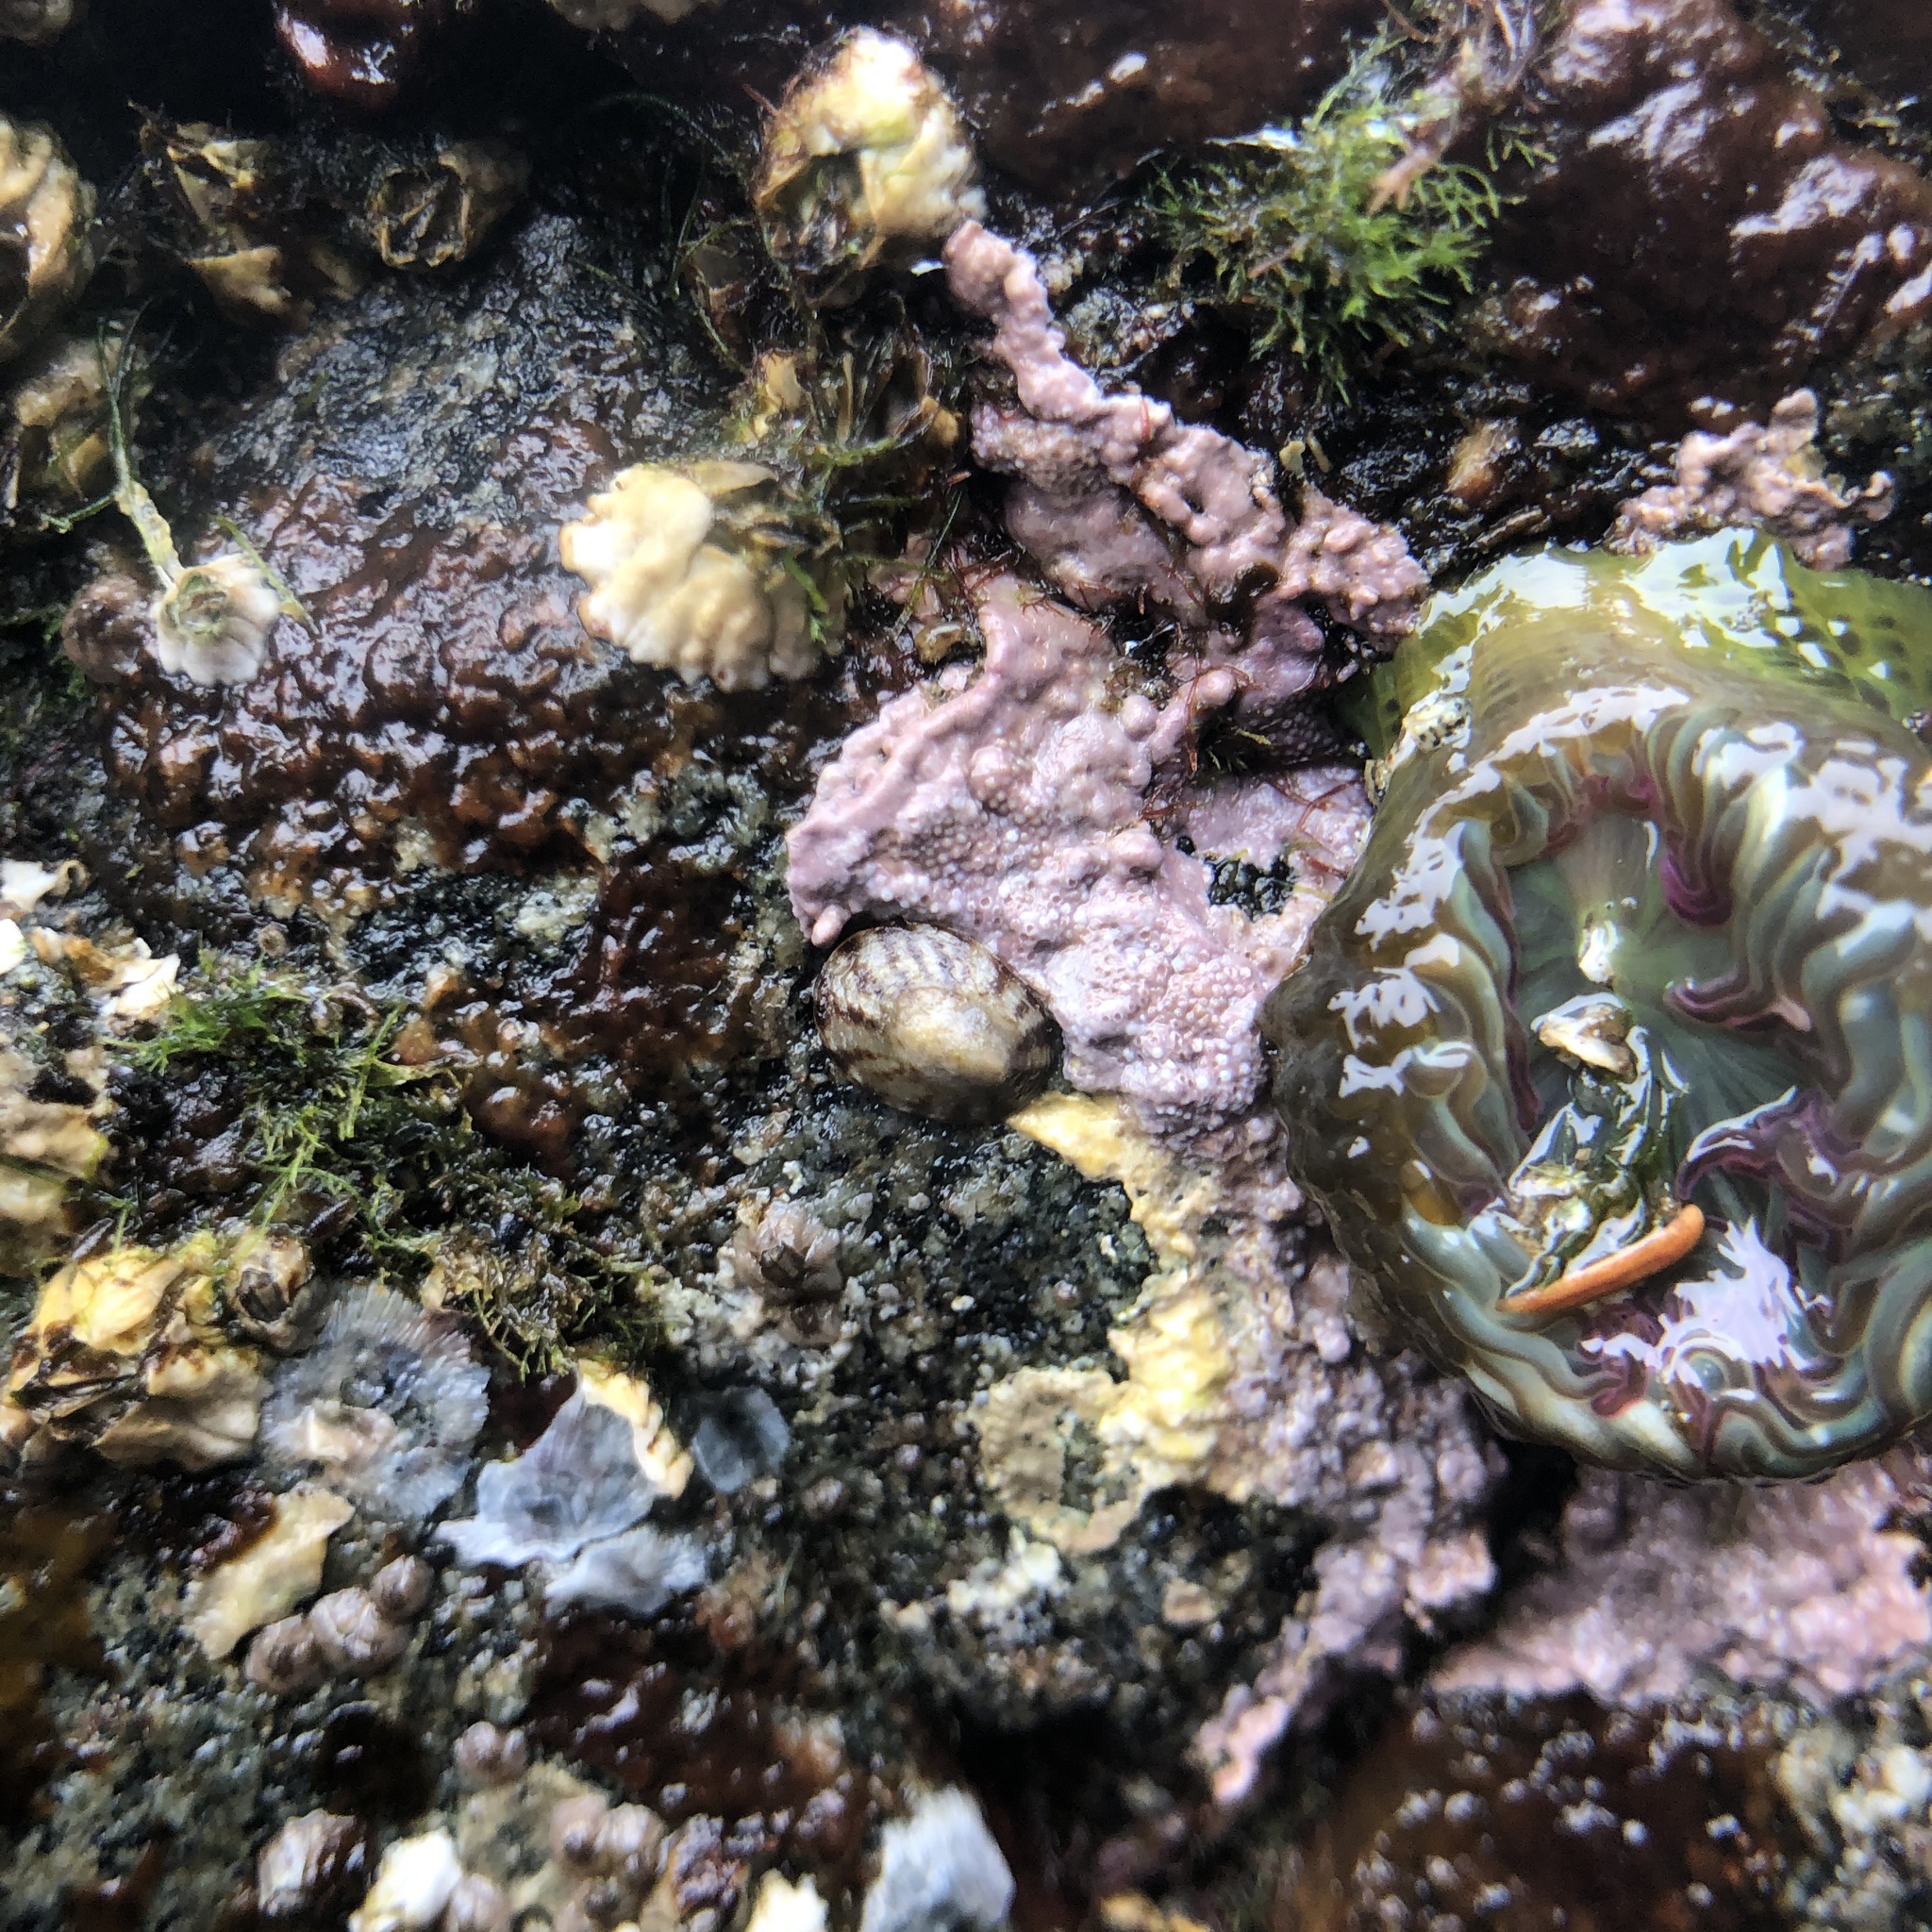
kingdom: Plantae
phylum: Rhodophyta
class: Florideophyceae
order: Corallinales
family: Corallinaceae
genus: Chamberlainium
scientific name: Chamberlainium tumidum
